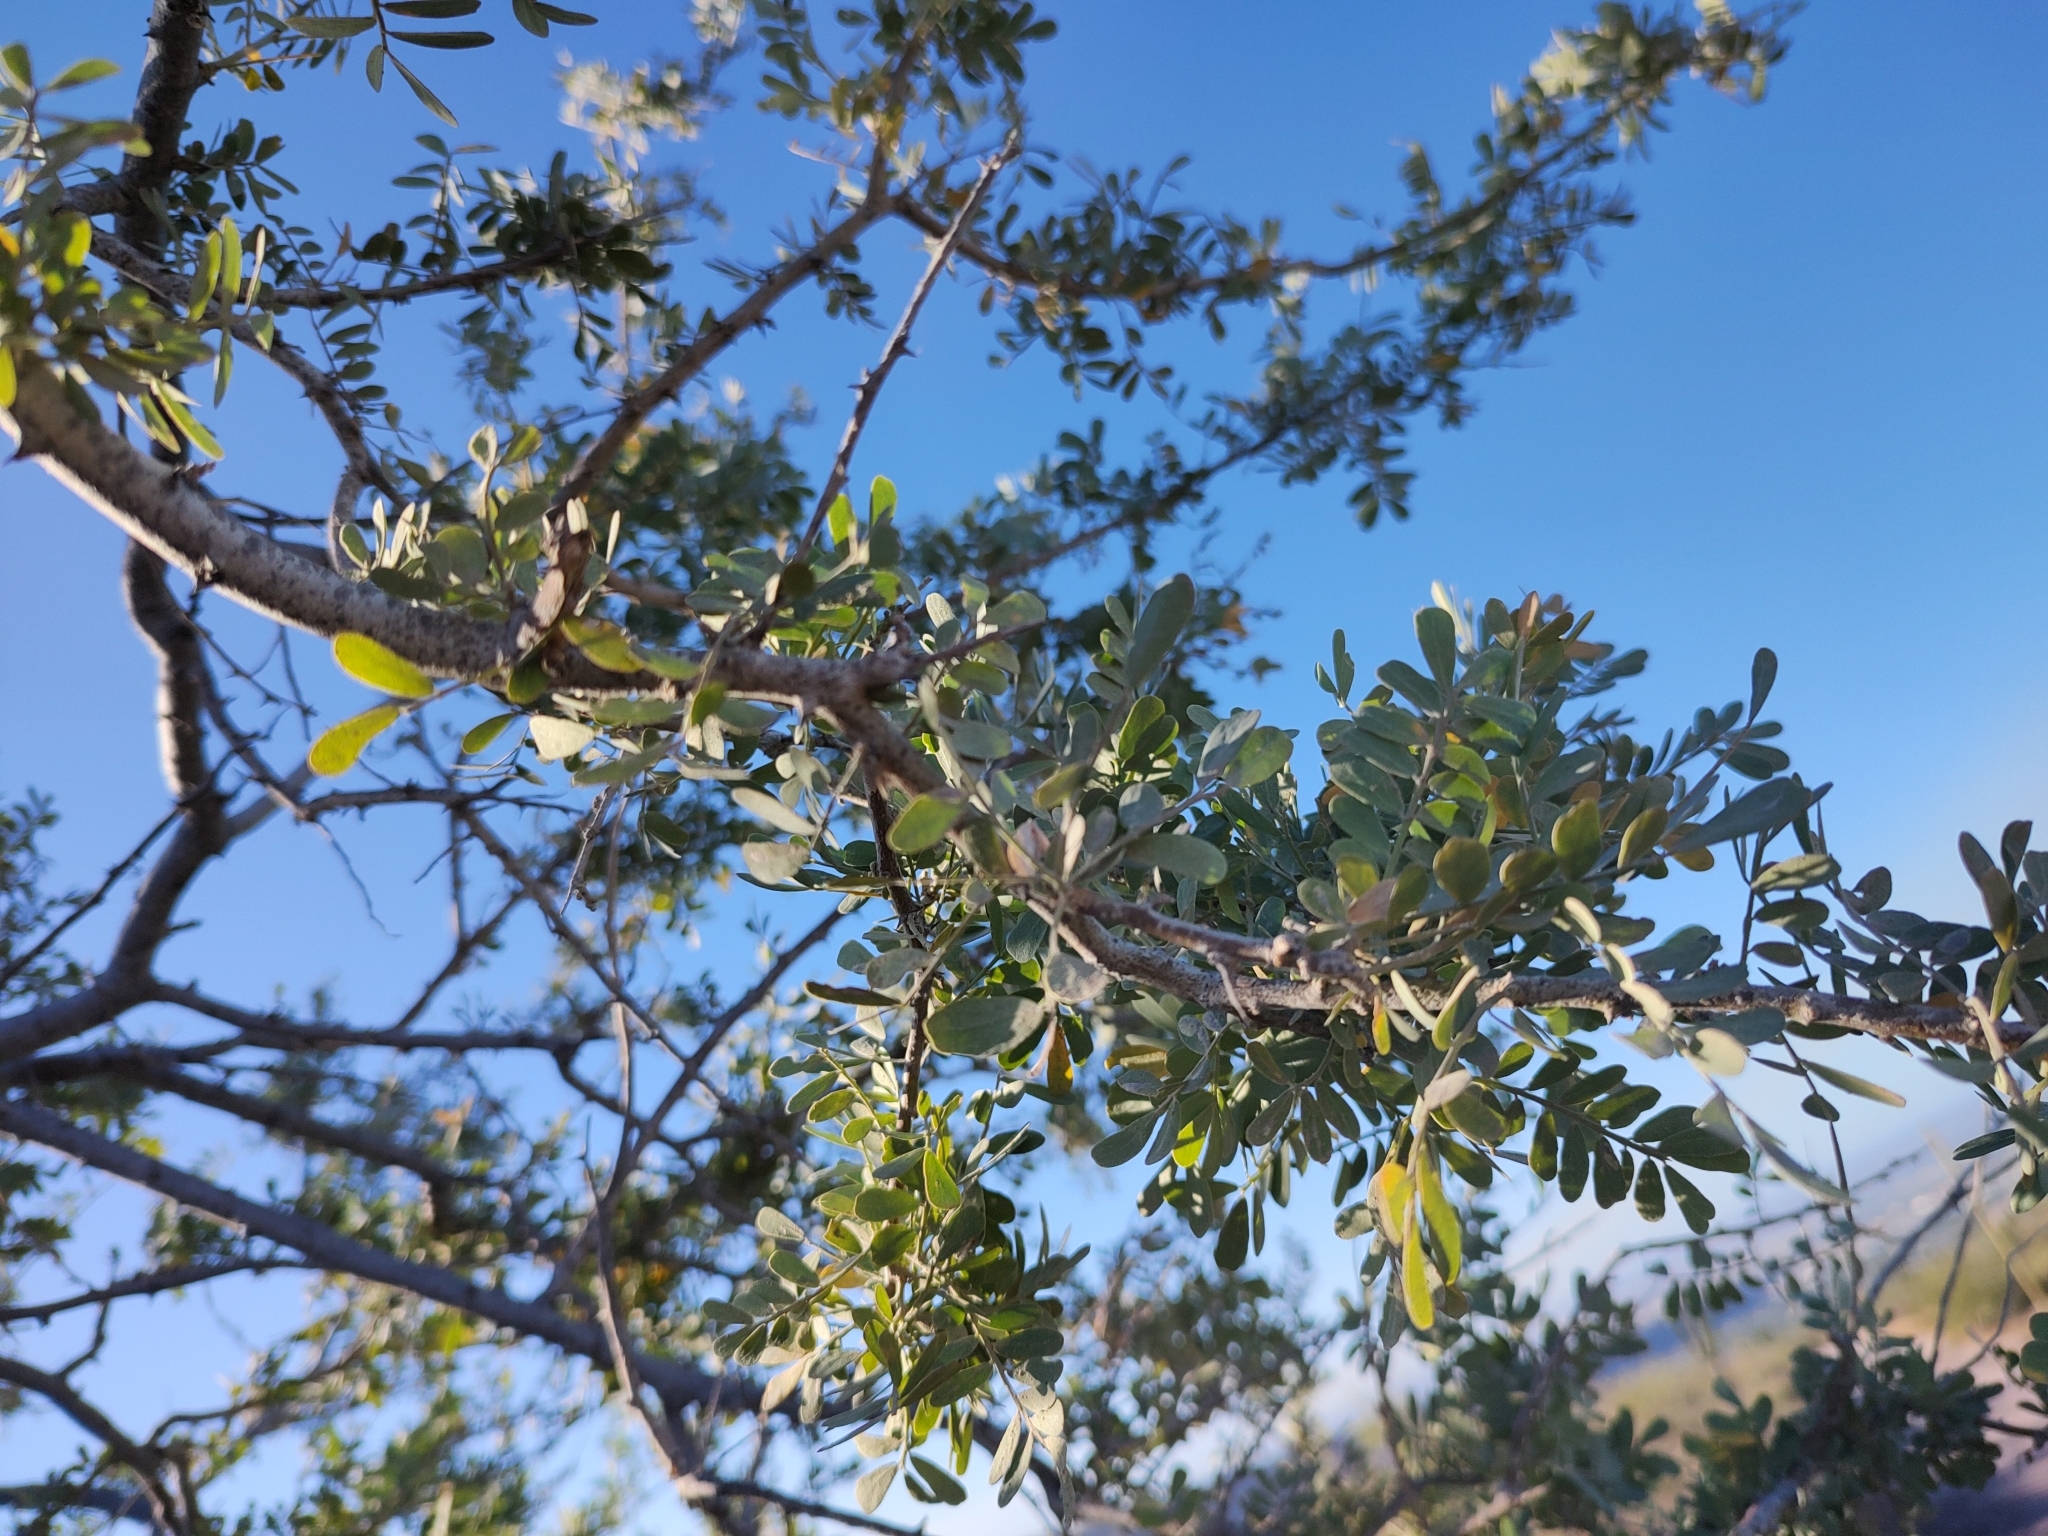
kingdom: Plantae
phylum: Tracheophyta
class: Magnoliopsida
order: Fabales
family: Fabaceae
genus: Olneya
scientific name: Olneya tesota
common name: Desert ironwood
